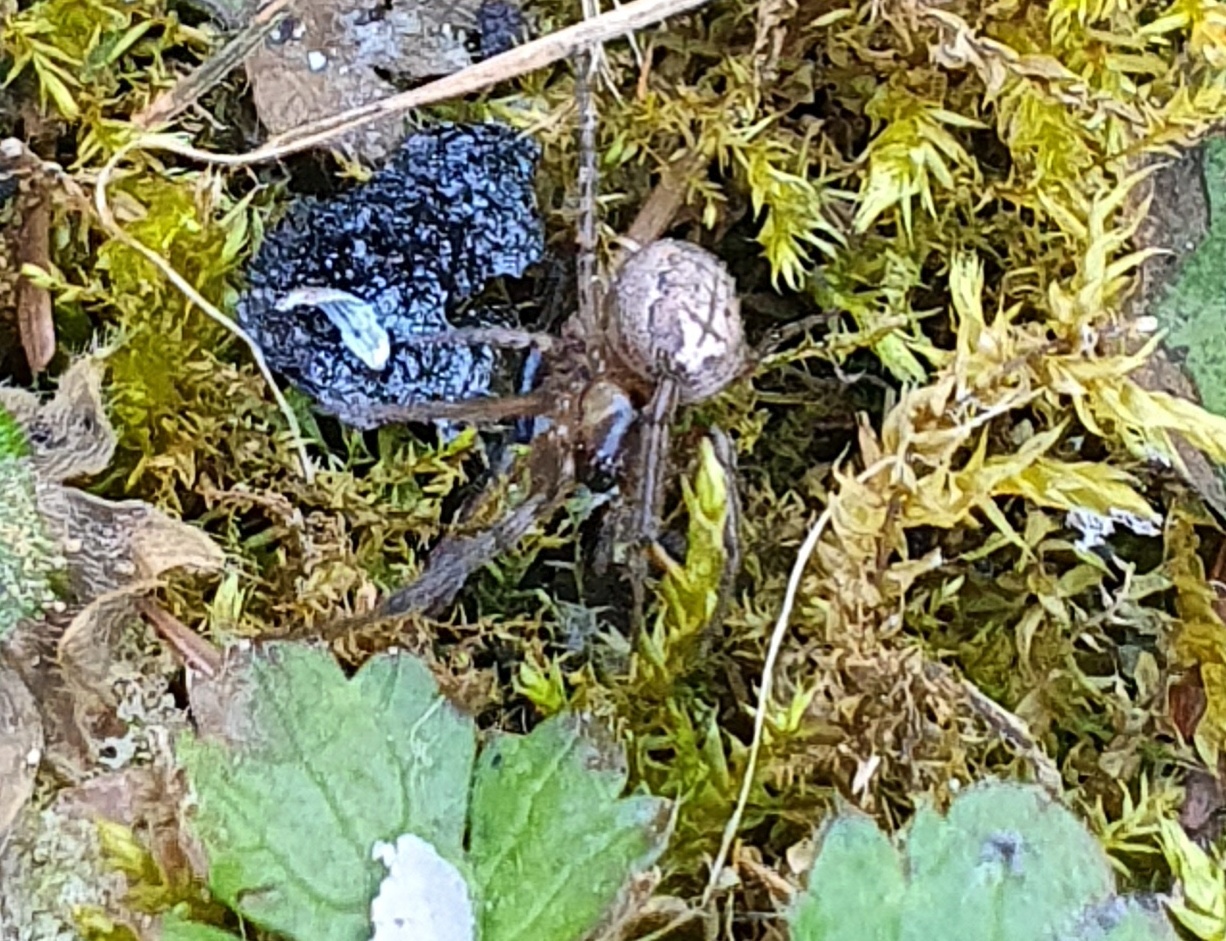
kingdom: Animalia
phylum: Arthropoda
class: Arachnida
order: Araneae
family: Araneidae
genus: Zygiella
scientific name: Zygiella x-notata
